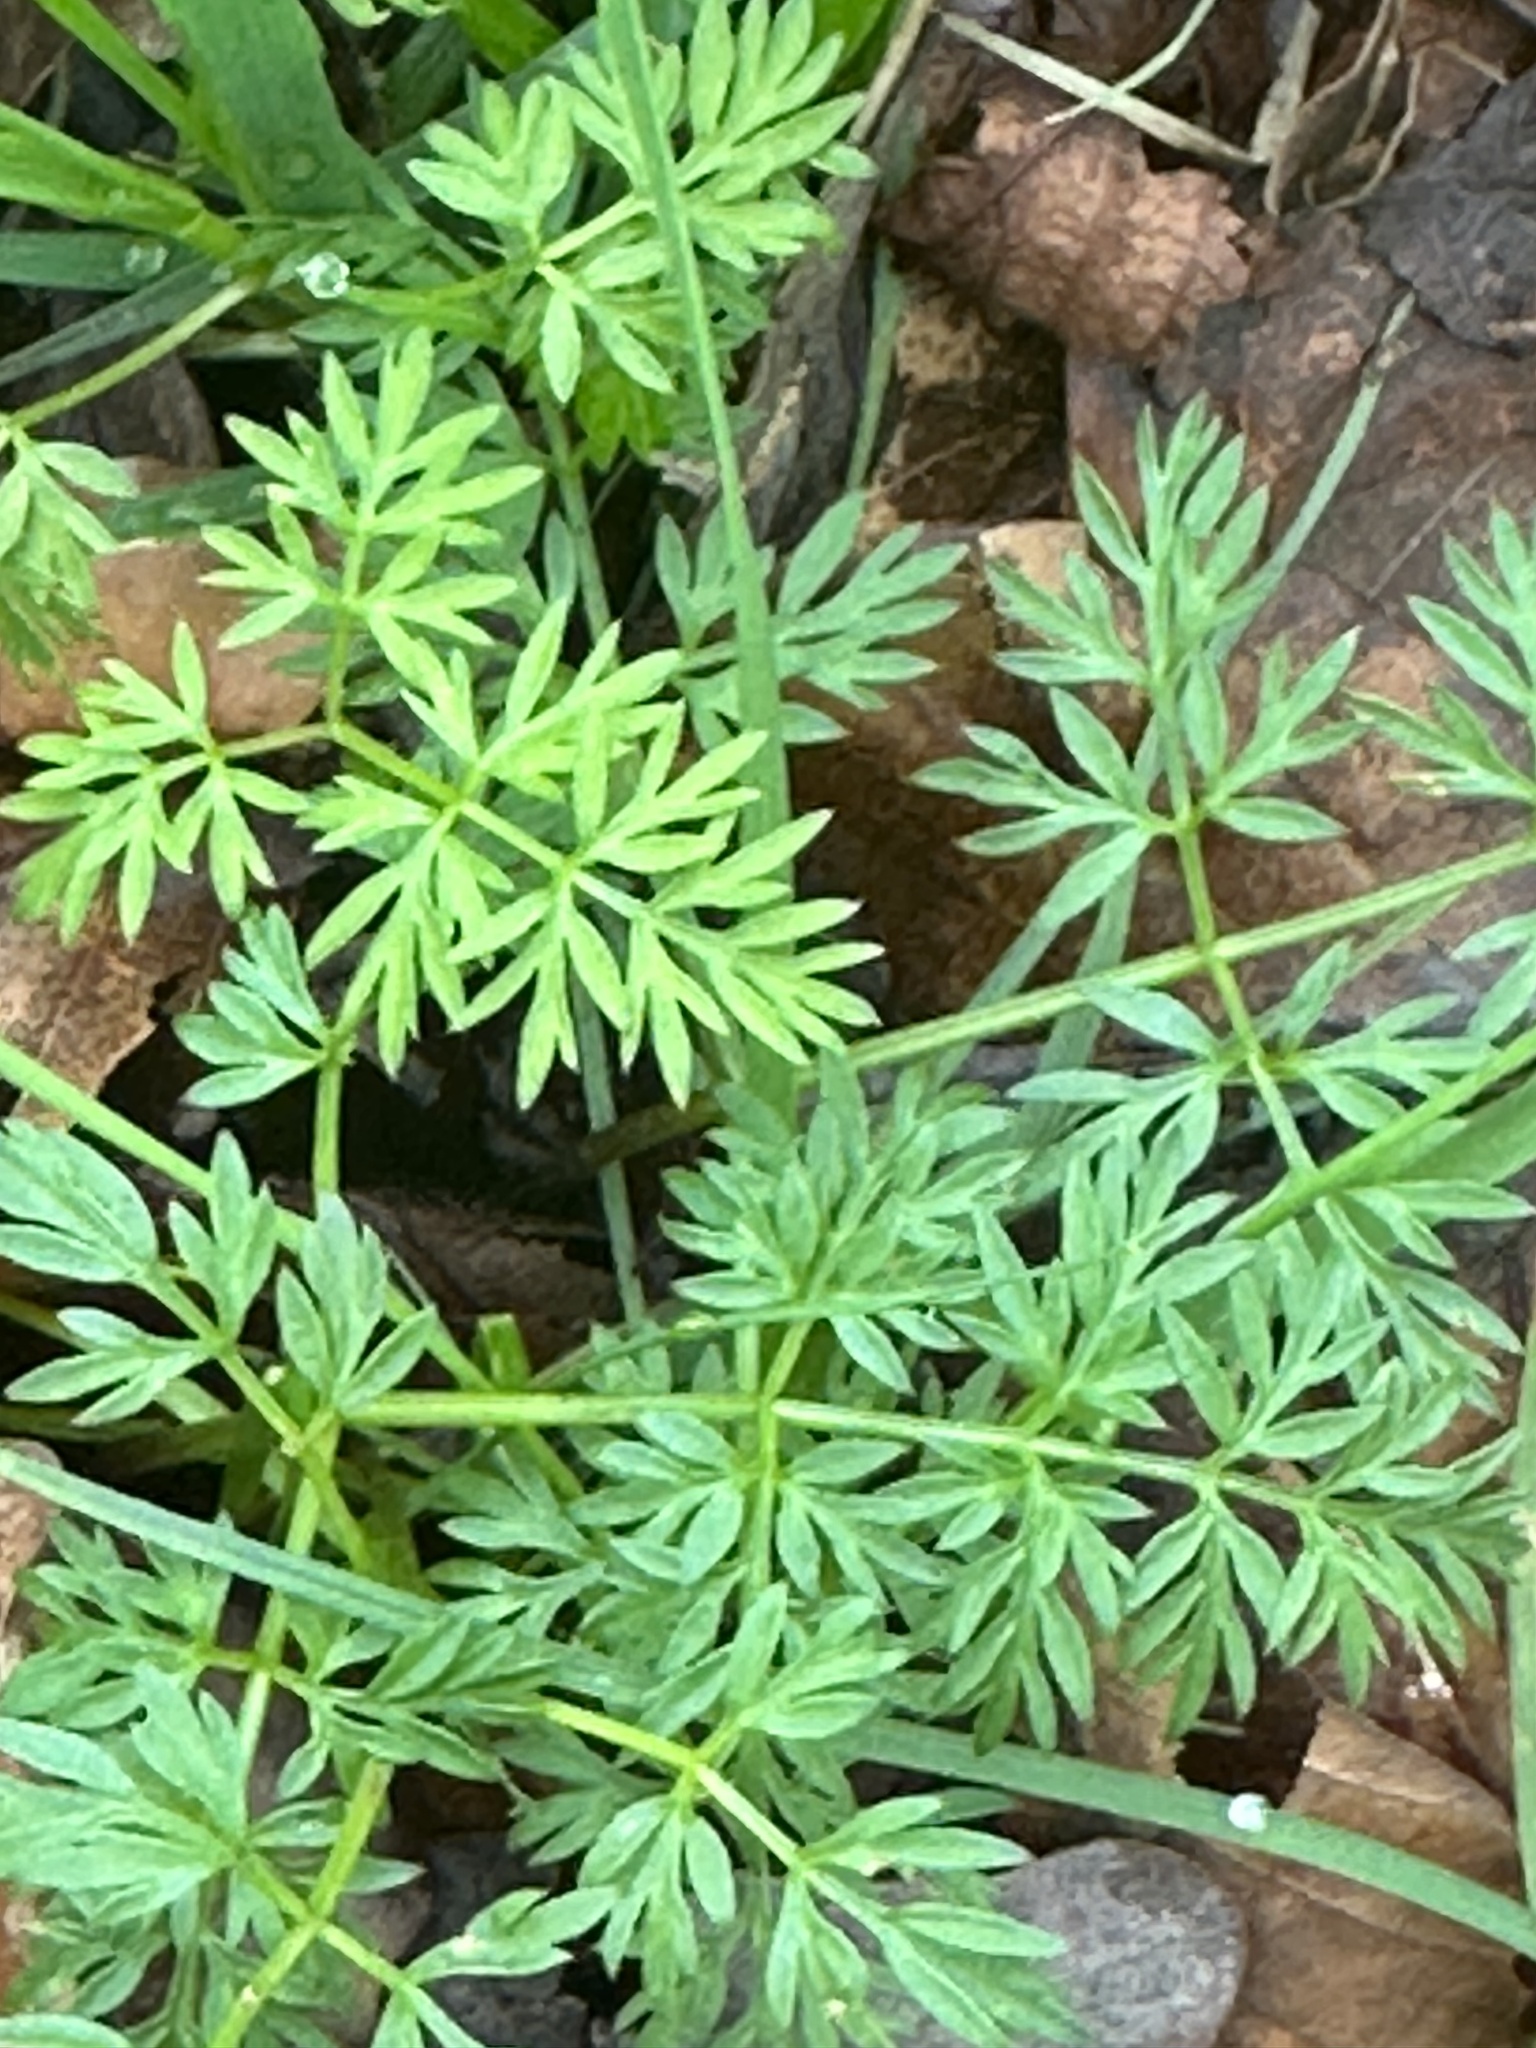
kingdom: Plantae
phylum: Tracheophyta
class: Magnoliopsida
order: Apiales
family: Apiaceae
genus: Conopodium
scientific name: Conopodium majus
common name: Pignut
